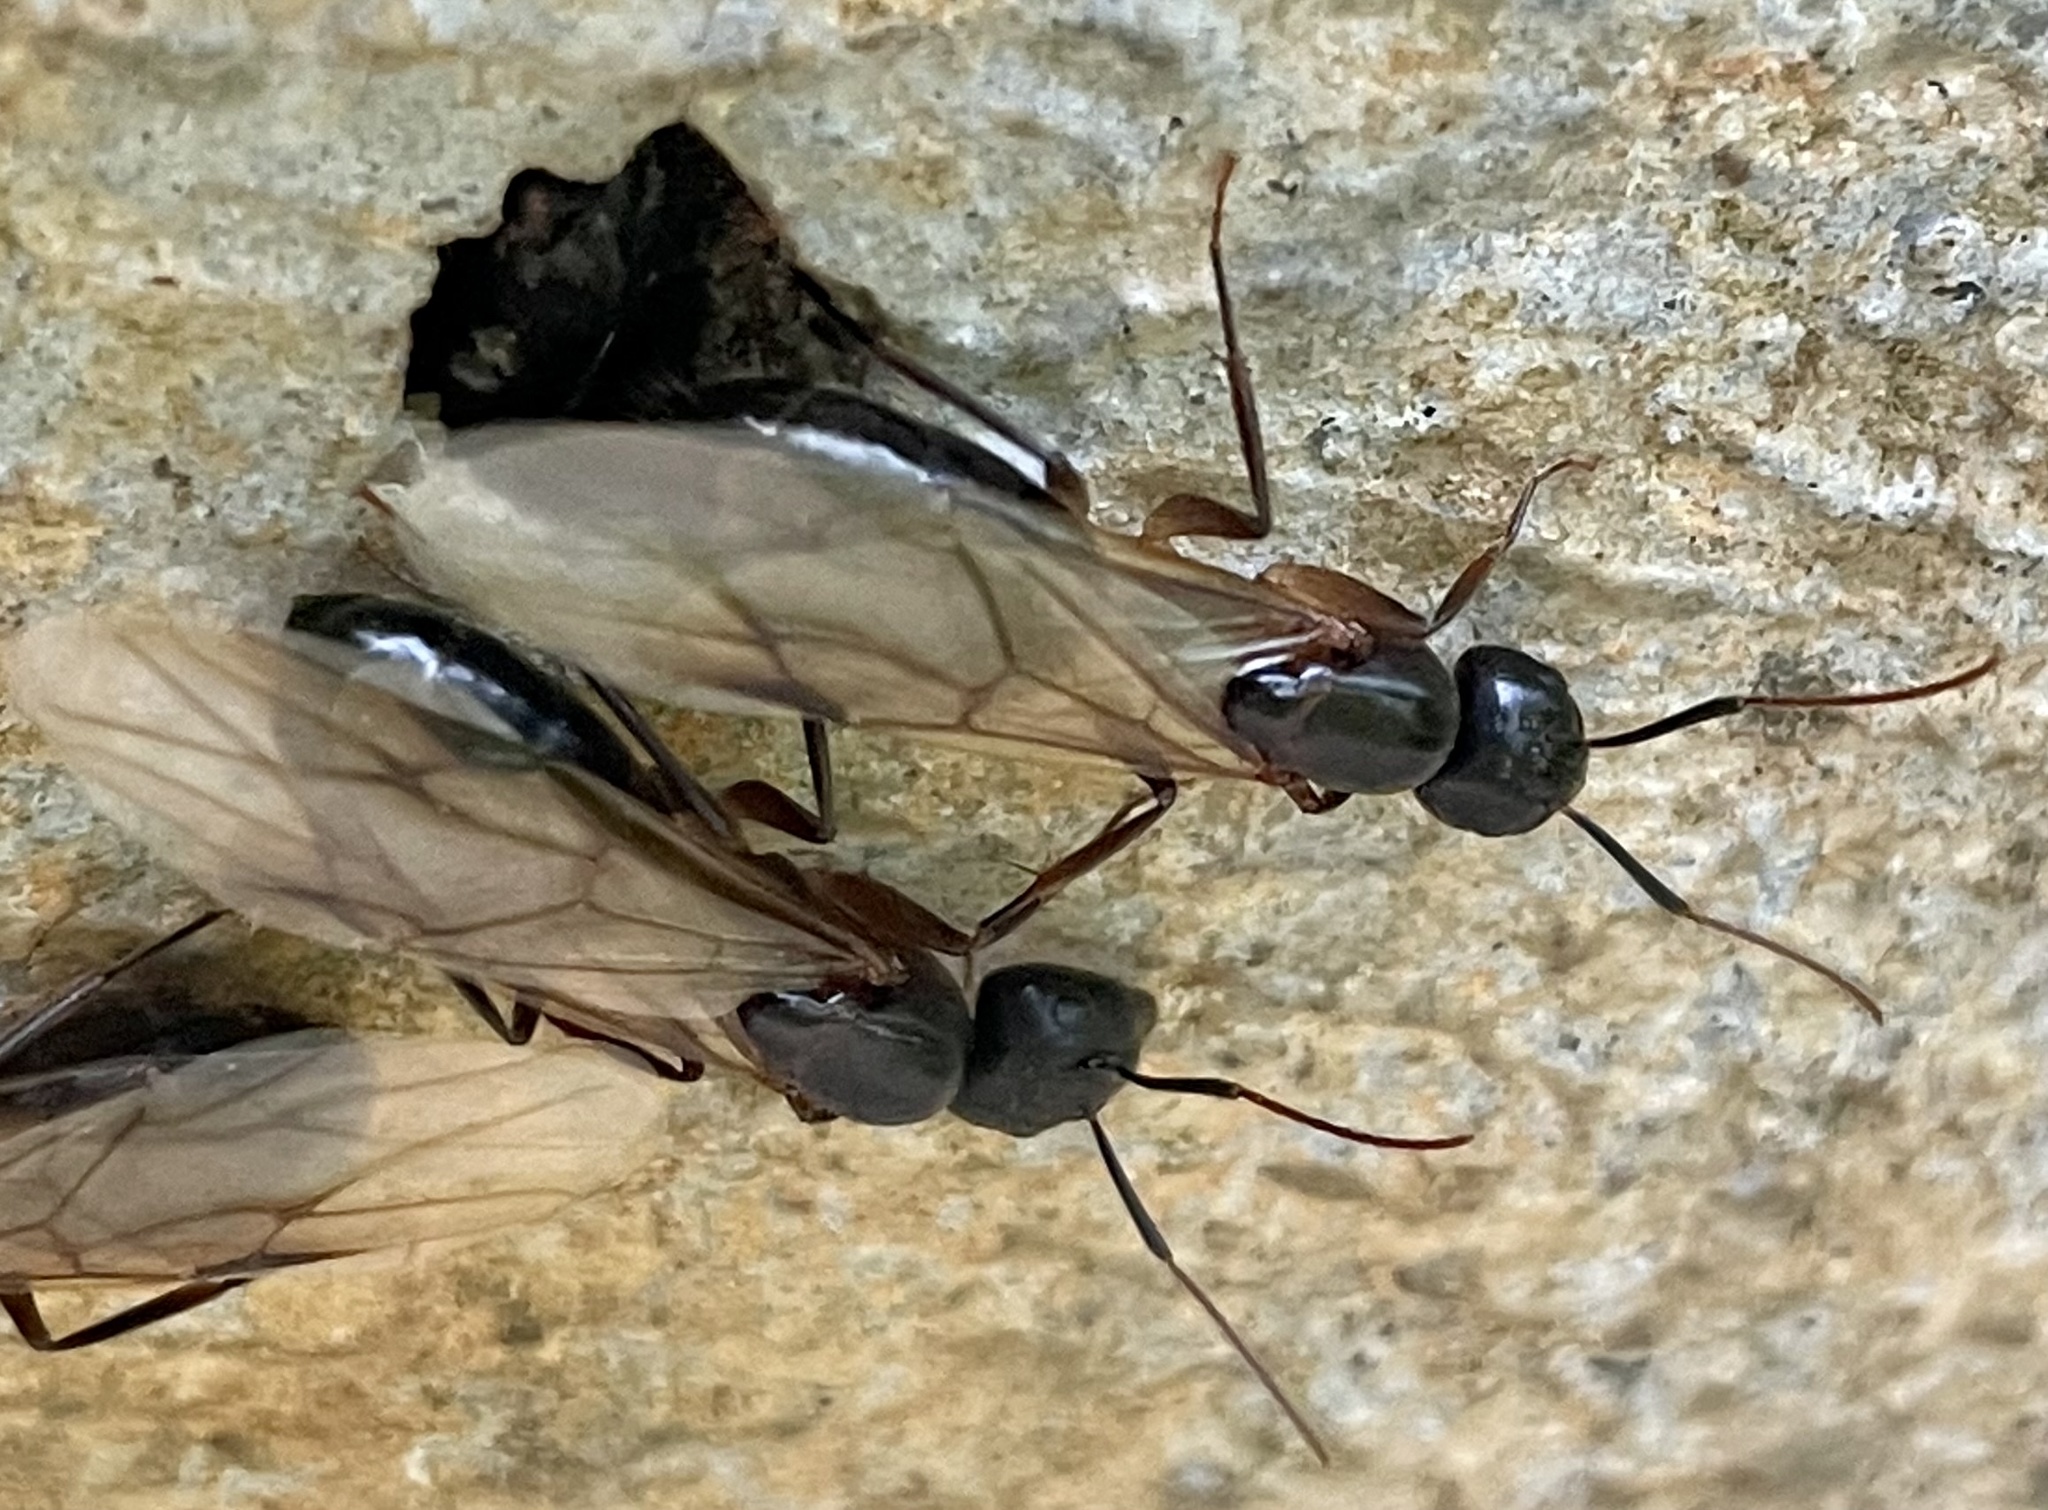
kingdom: Animalia
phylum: Arthropoda
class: Insecta
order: Hymenoptera
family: Formicidae
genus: Camponotus
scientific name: Camponotus compressus
